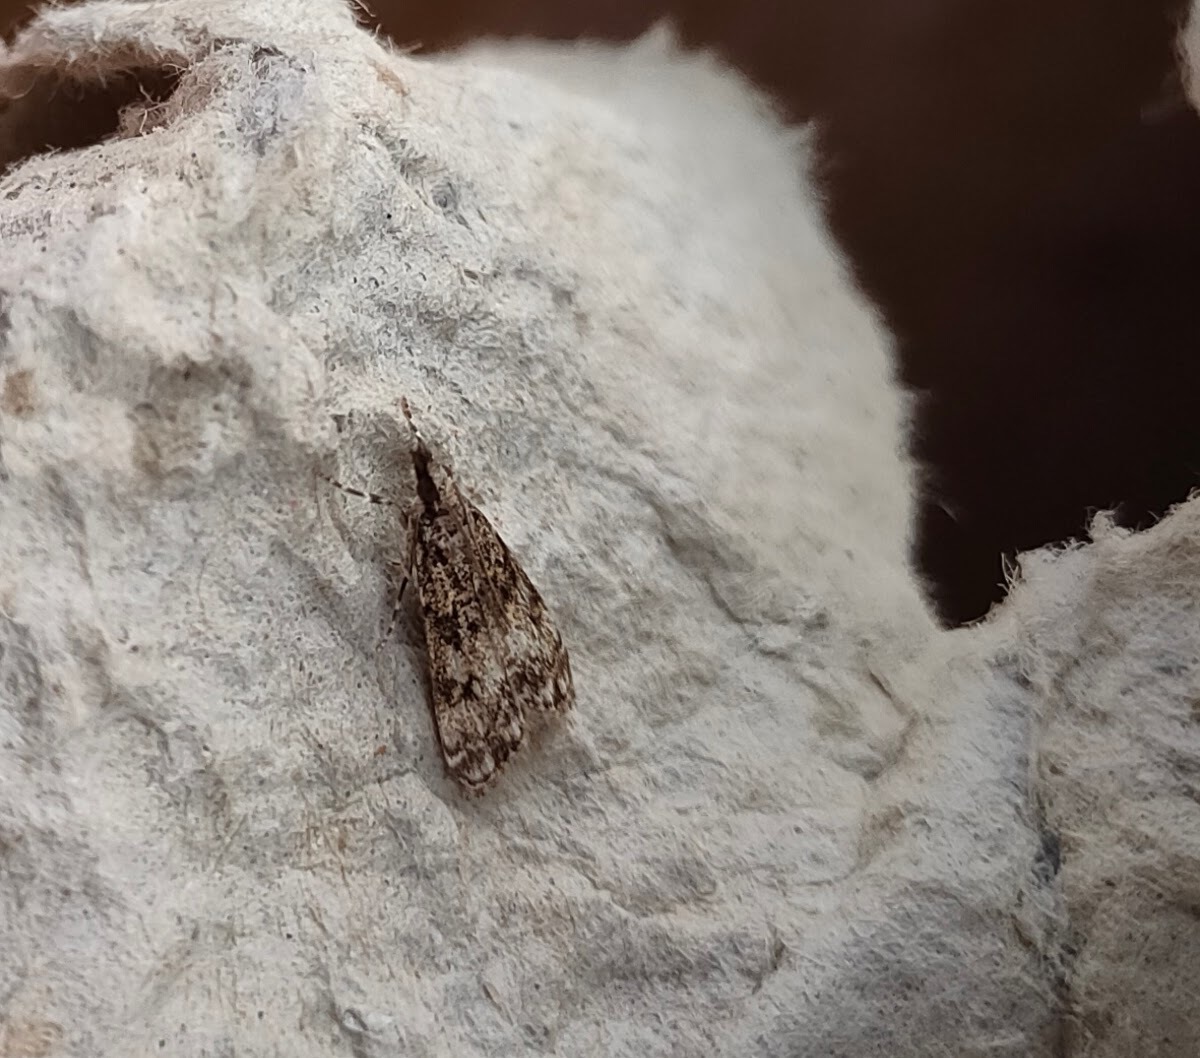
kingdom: Animalia
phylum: Arthropoda
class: Insecta
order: Lepidoptera
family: Crambidae
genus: Eudonia
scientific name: Eudonia mercurella
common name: Small grey
